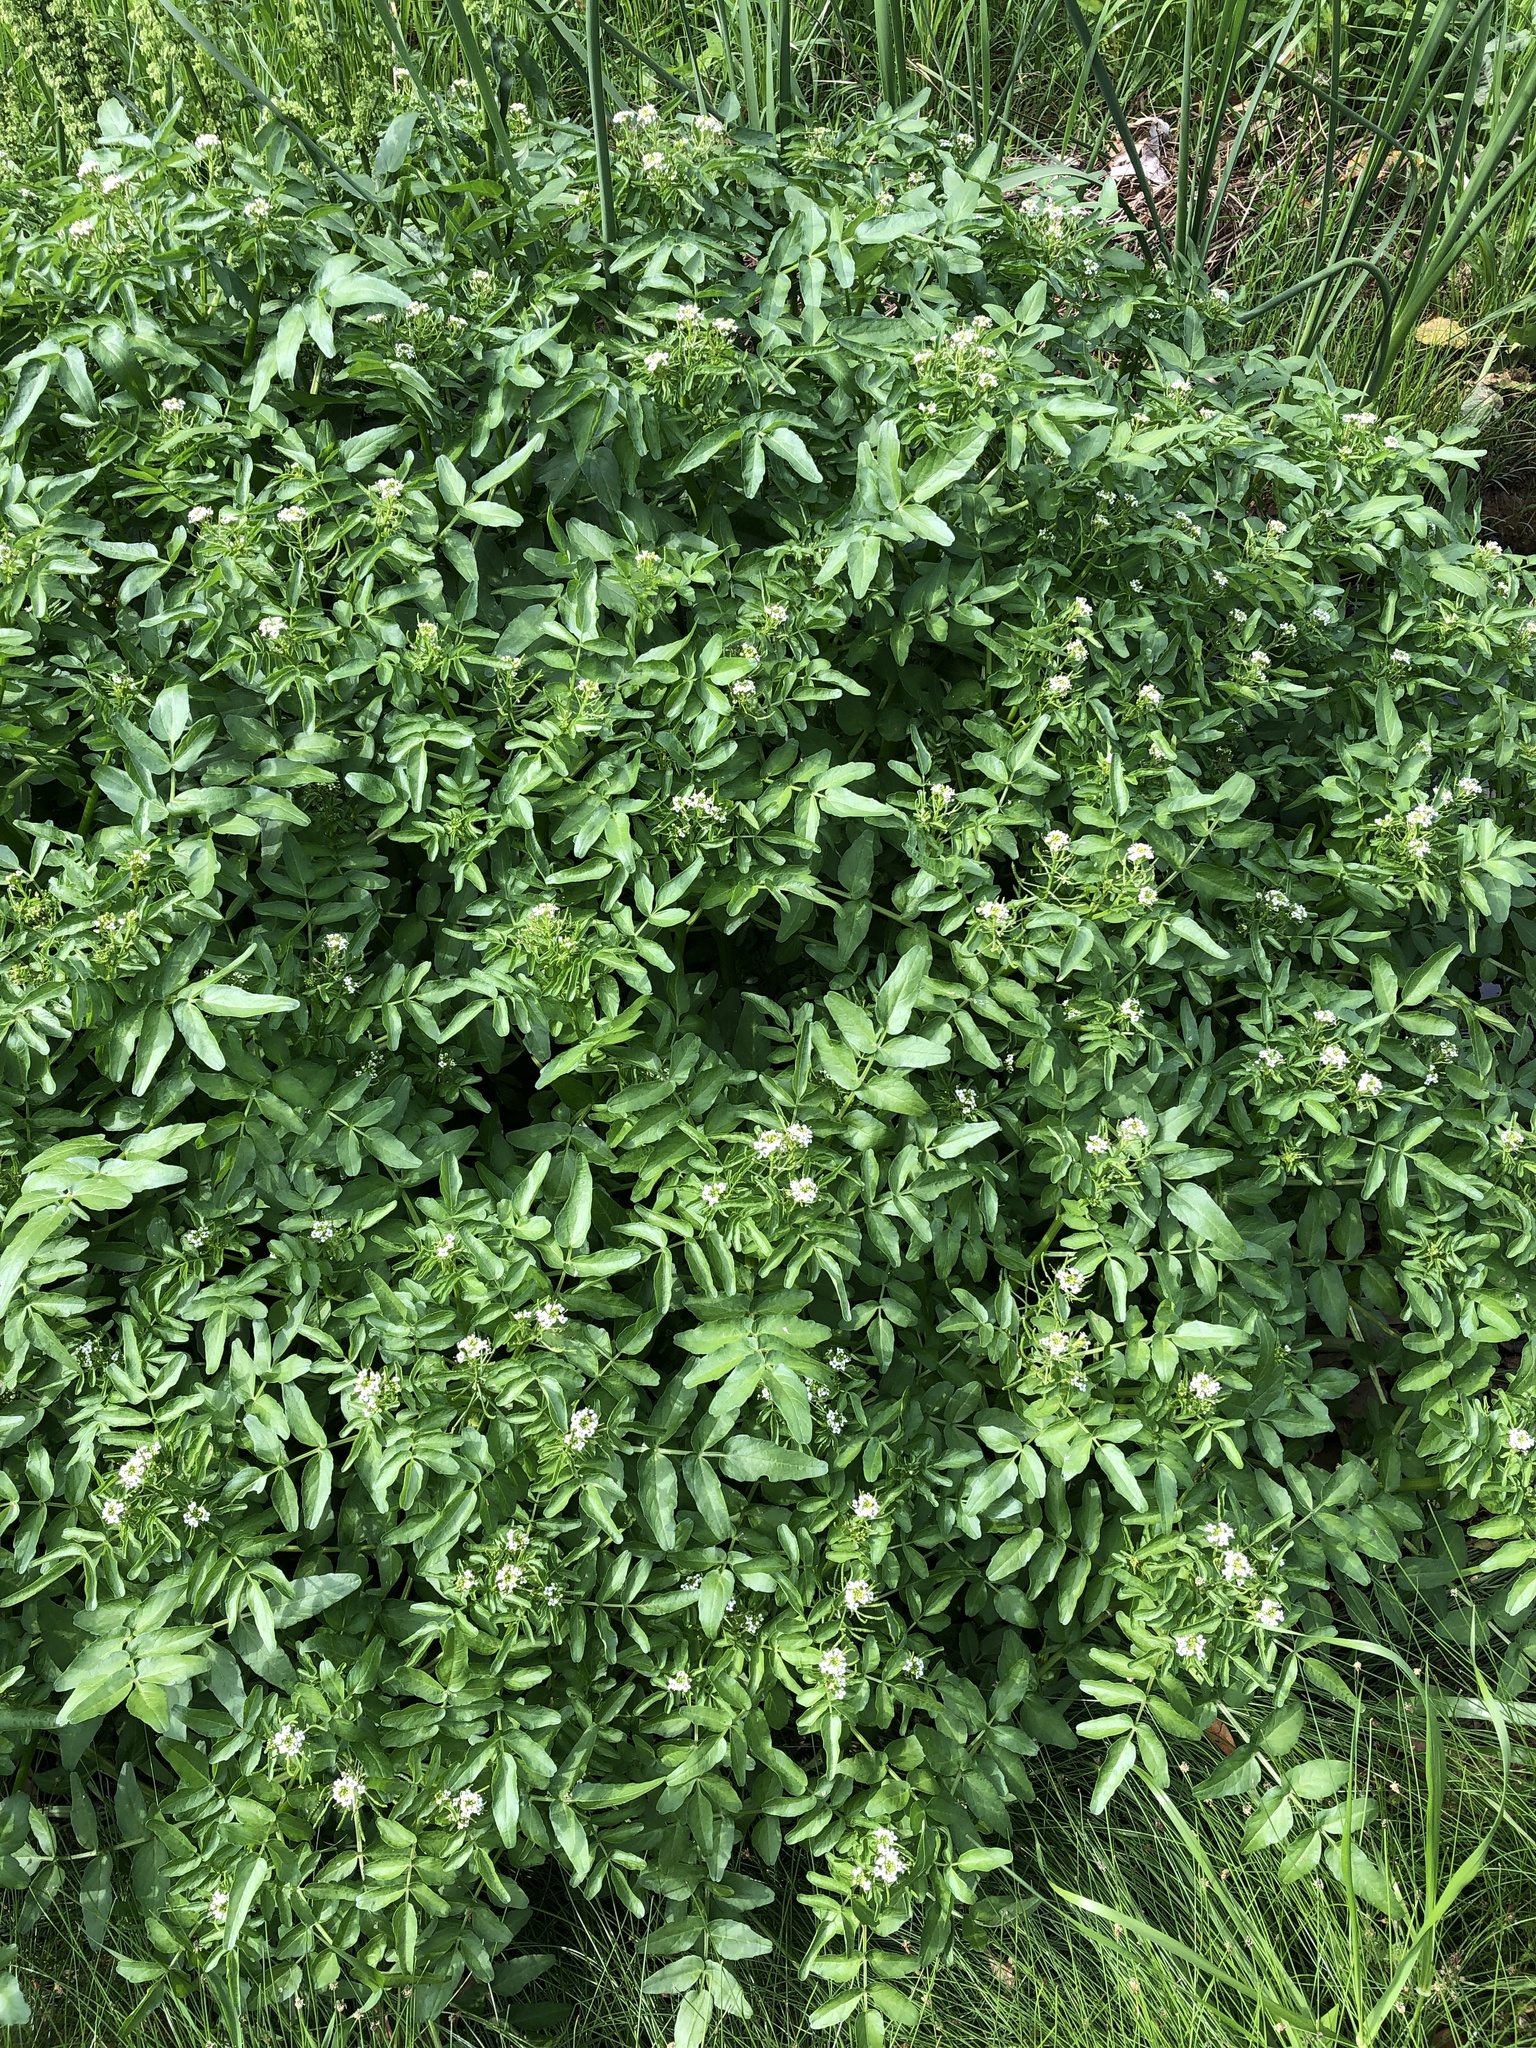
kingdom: Plantae
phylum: Tracheophyta
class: Magnoliopsida
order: Brassicales
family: Brassicaceae
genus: Nasturtium
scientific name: Nasturtium officinale
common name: Watercress
